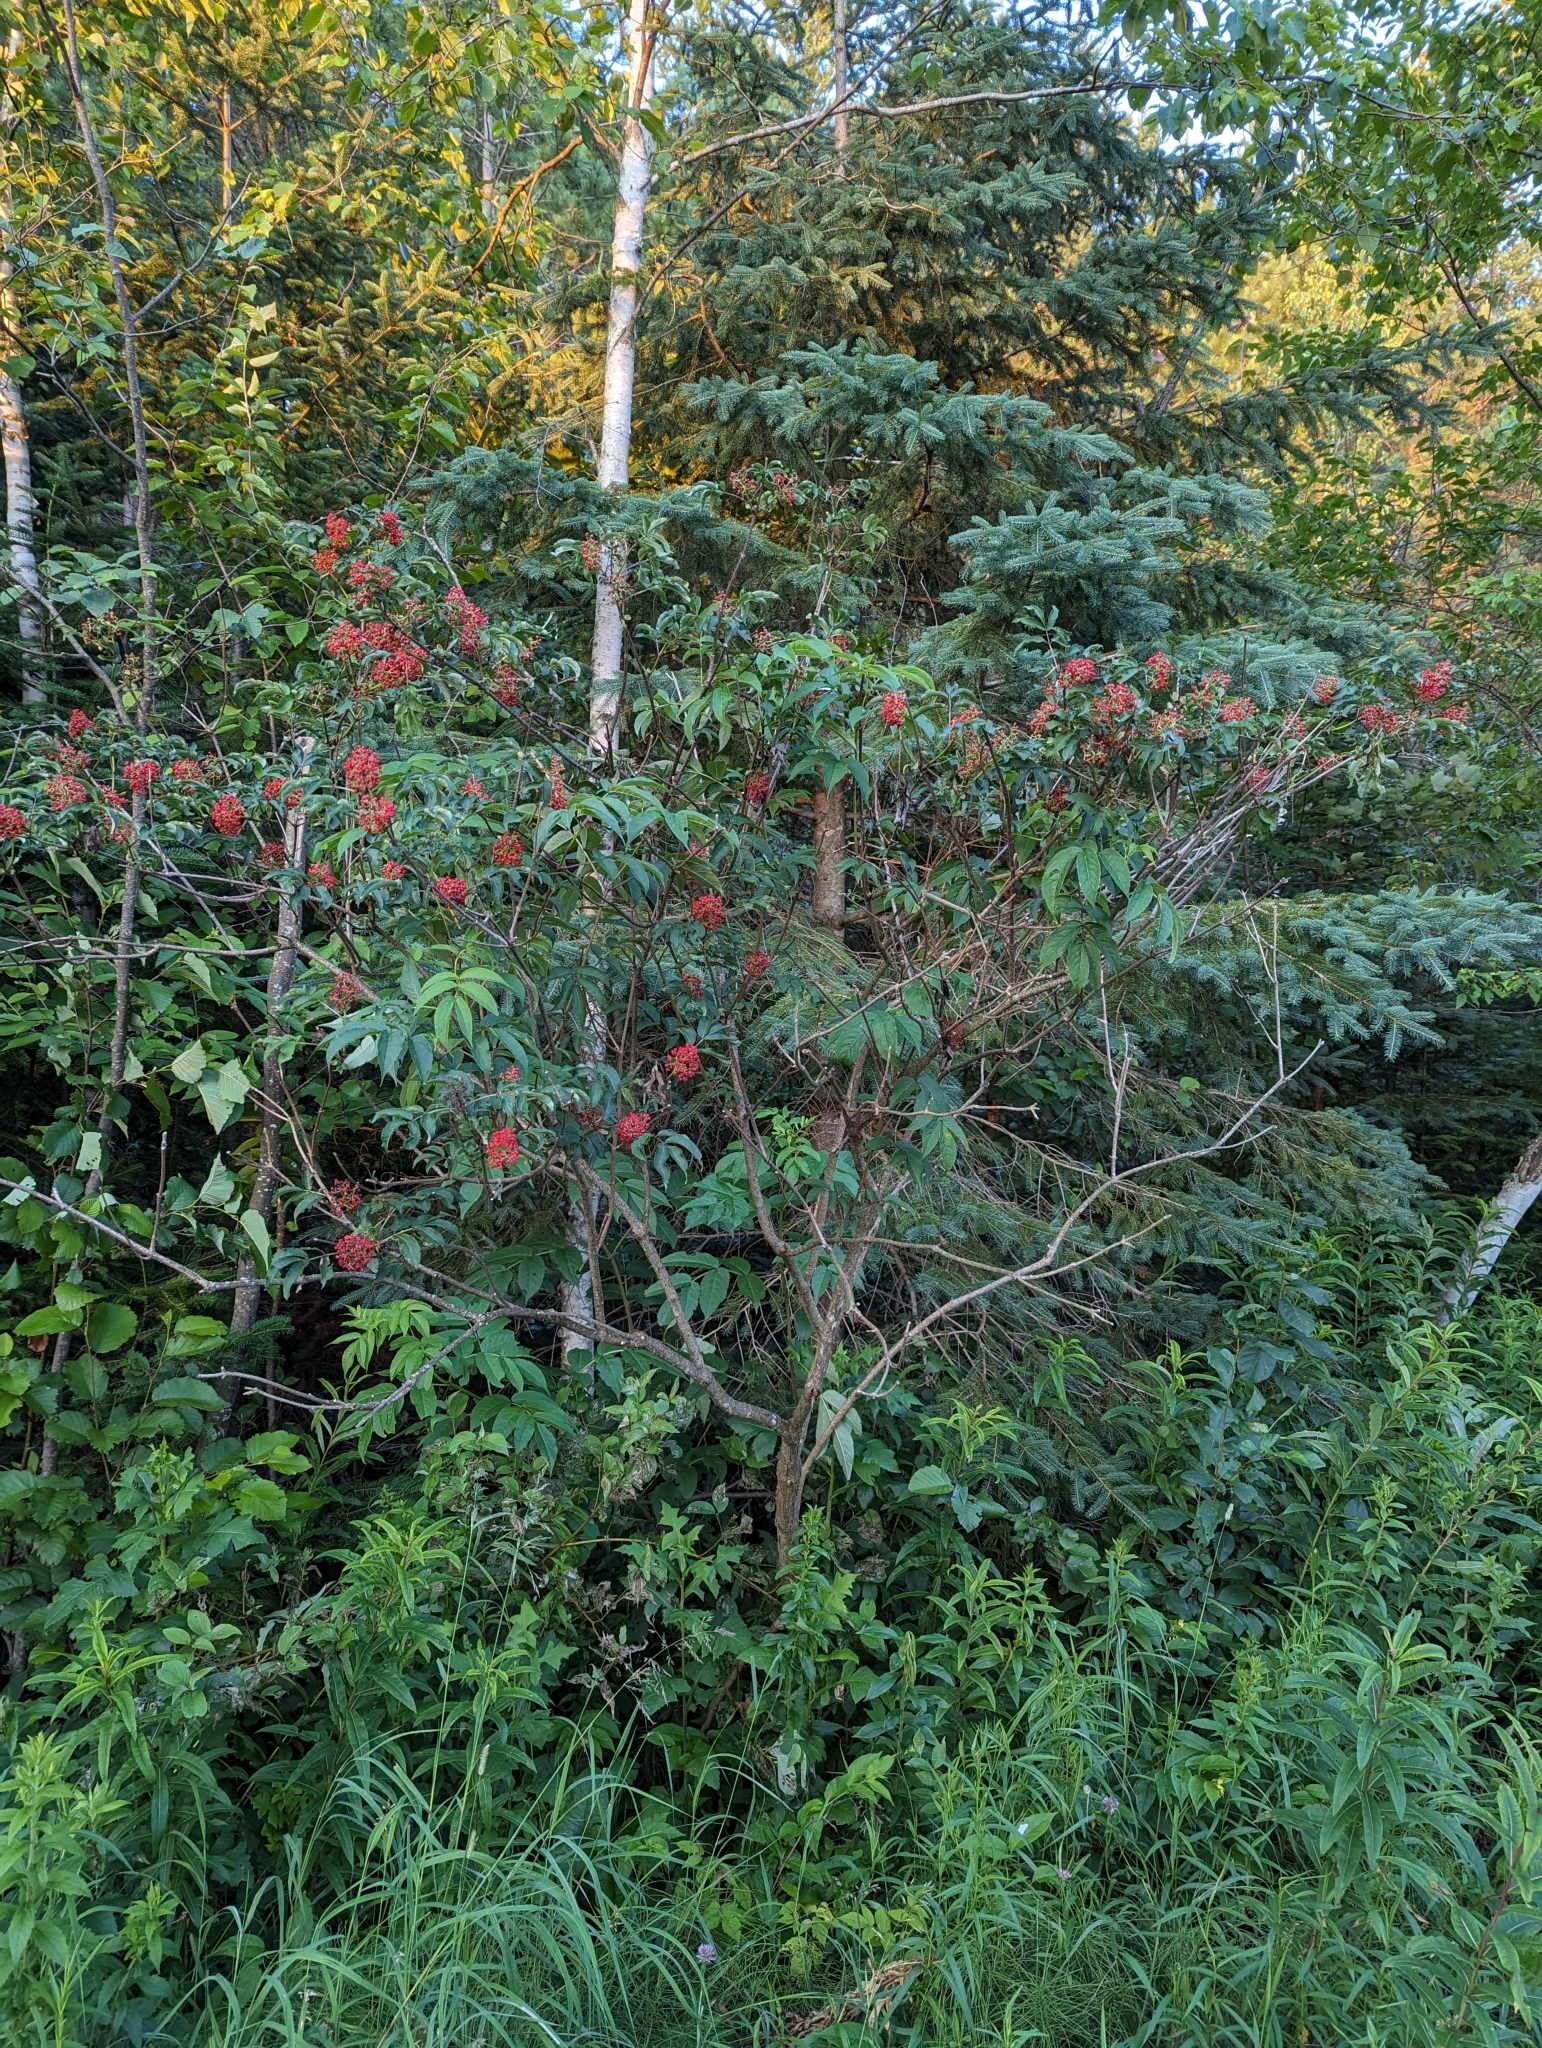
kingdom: Plantae
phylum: Tracheophyta
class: Magnoliopsida
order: Dipsacales
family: Viburnaceae
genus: Sambucus
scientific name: Sambucus racemosa
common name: Red-berried elder
